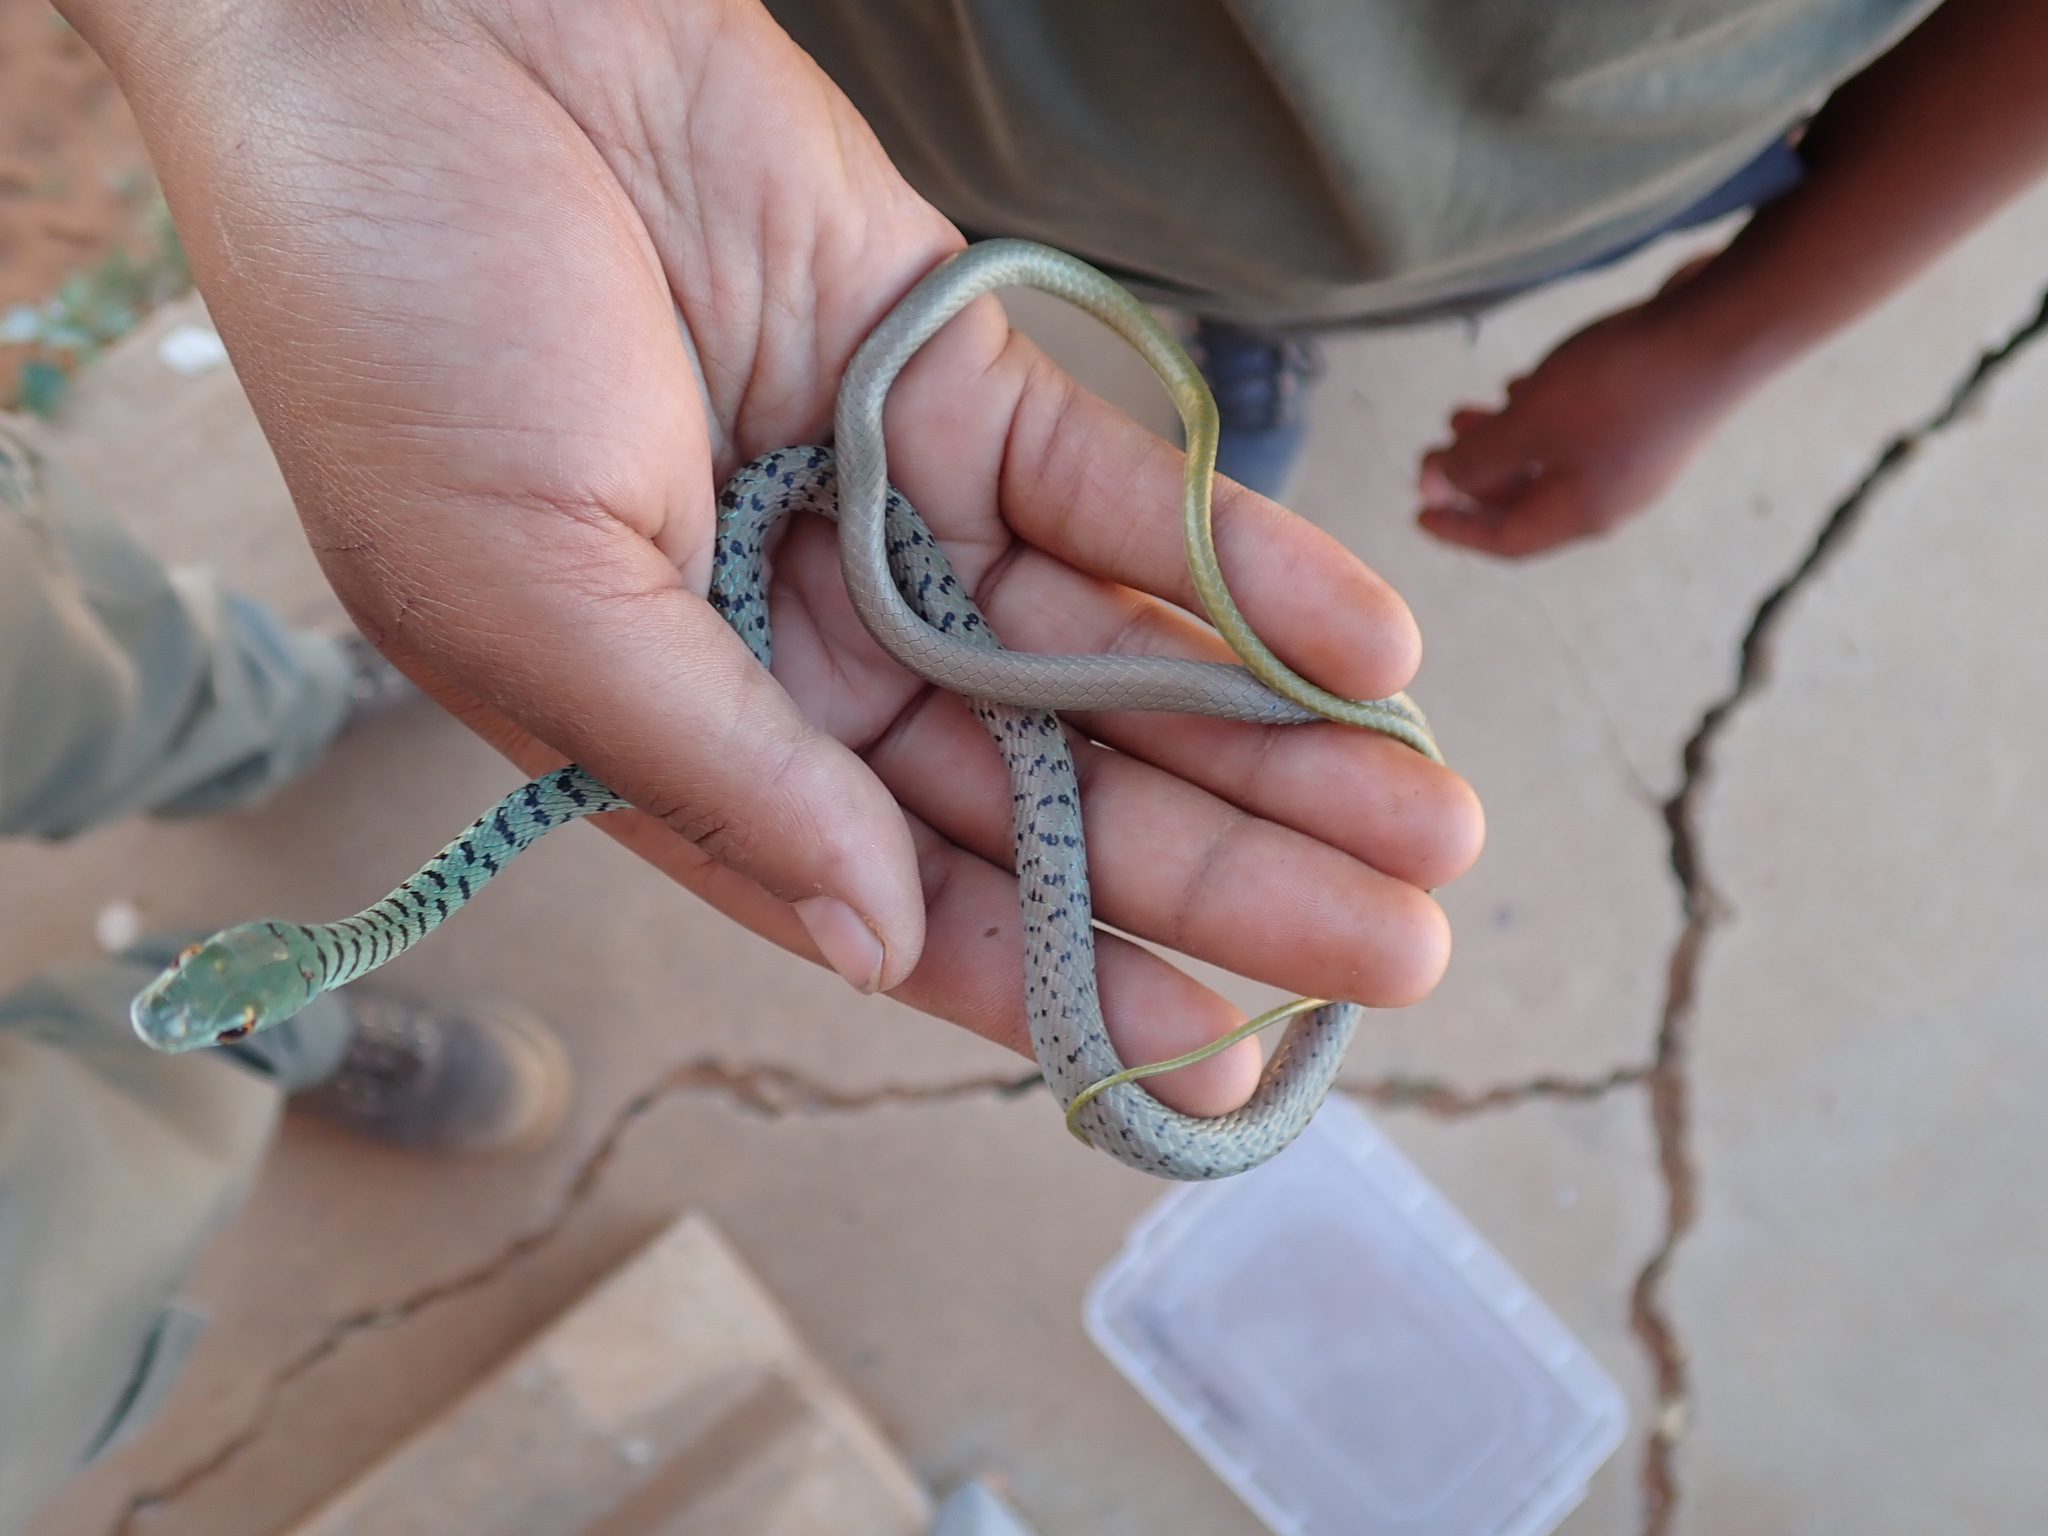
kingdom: Animalia
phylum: Chordata
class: Squamata
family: Colubridae
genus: Philothamnus
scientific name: Philothamnus semivariegatus
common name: Spotted bush snake
